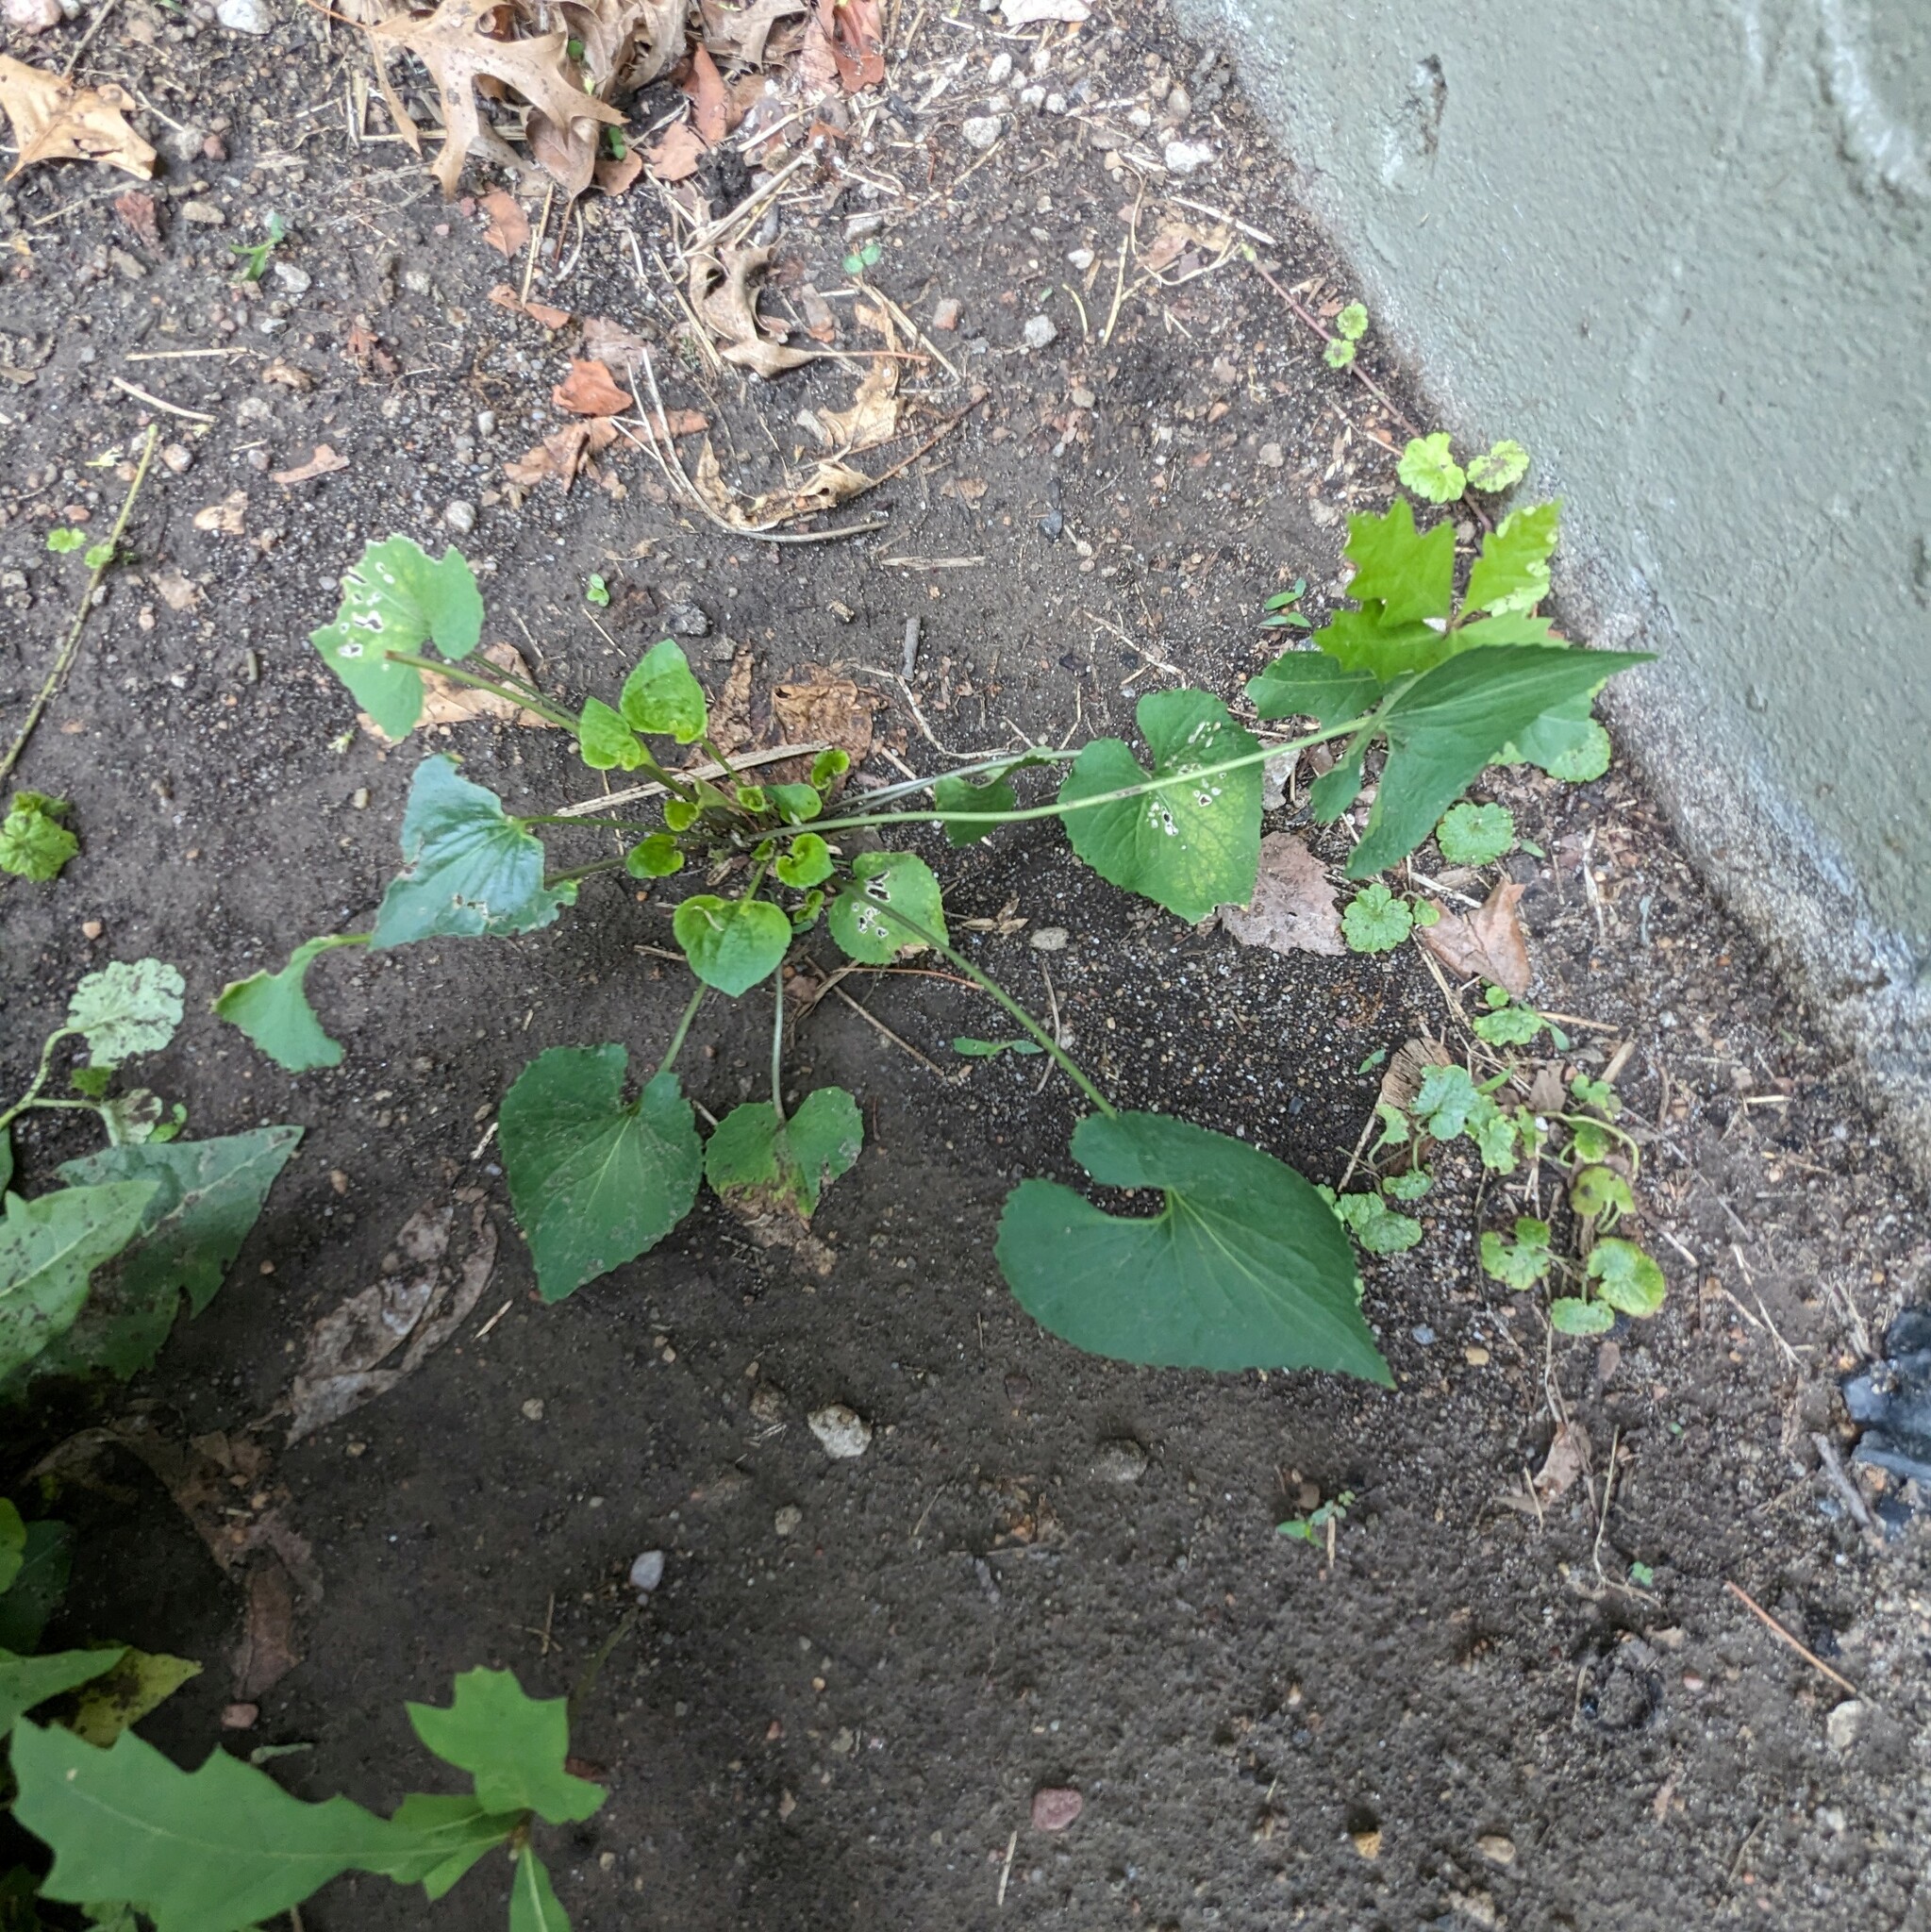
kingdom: Plantae
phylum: Tracheophyta
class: Magnoliopsida
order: Malpighiales
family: Violaceae
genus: Viola
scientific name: Viola sororia
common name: Dooryard violet
